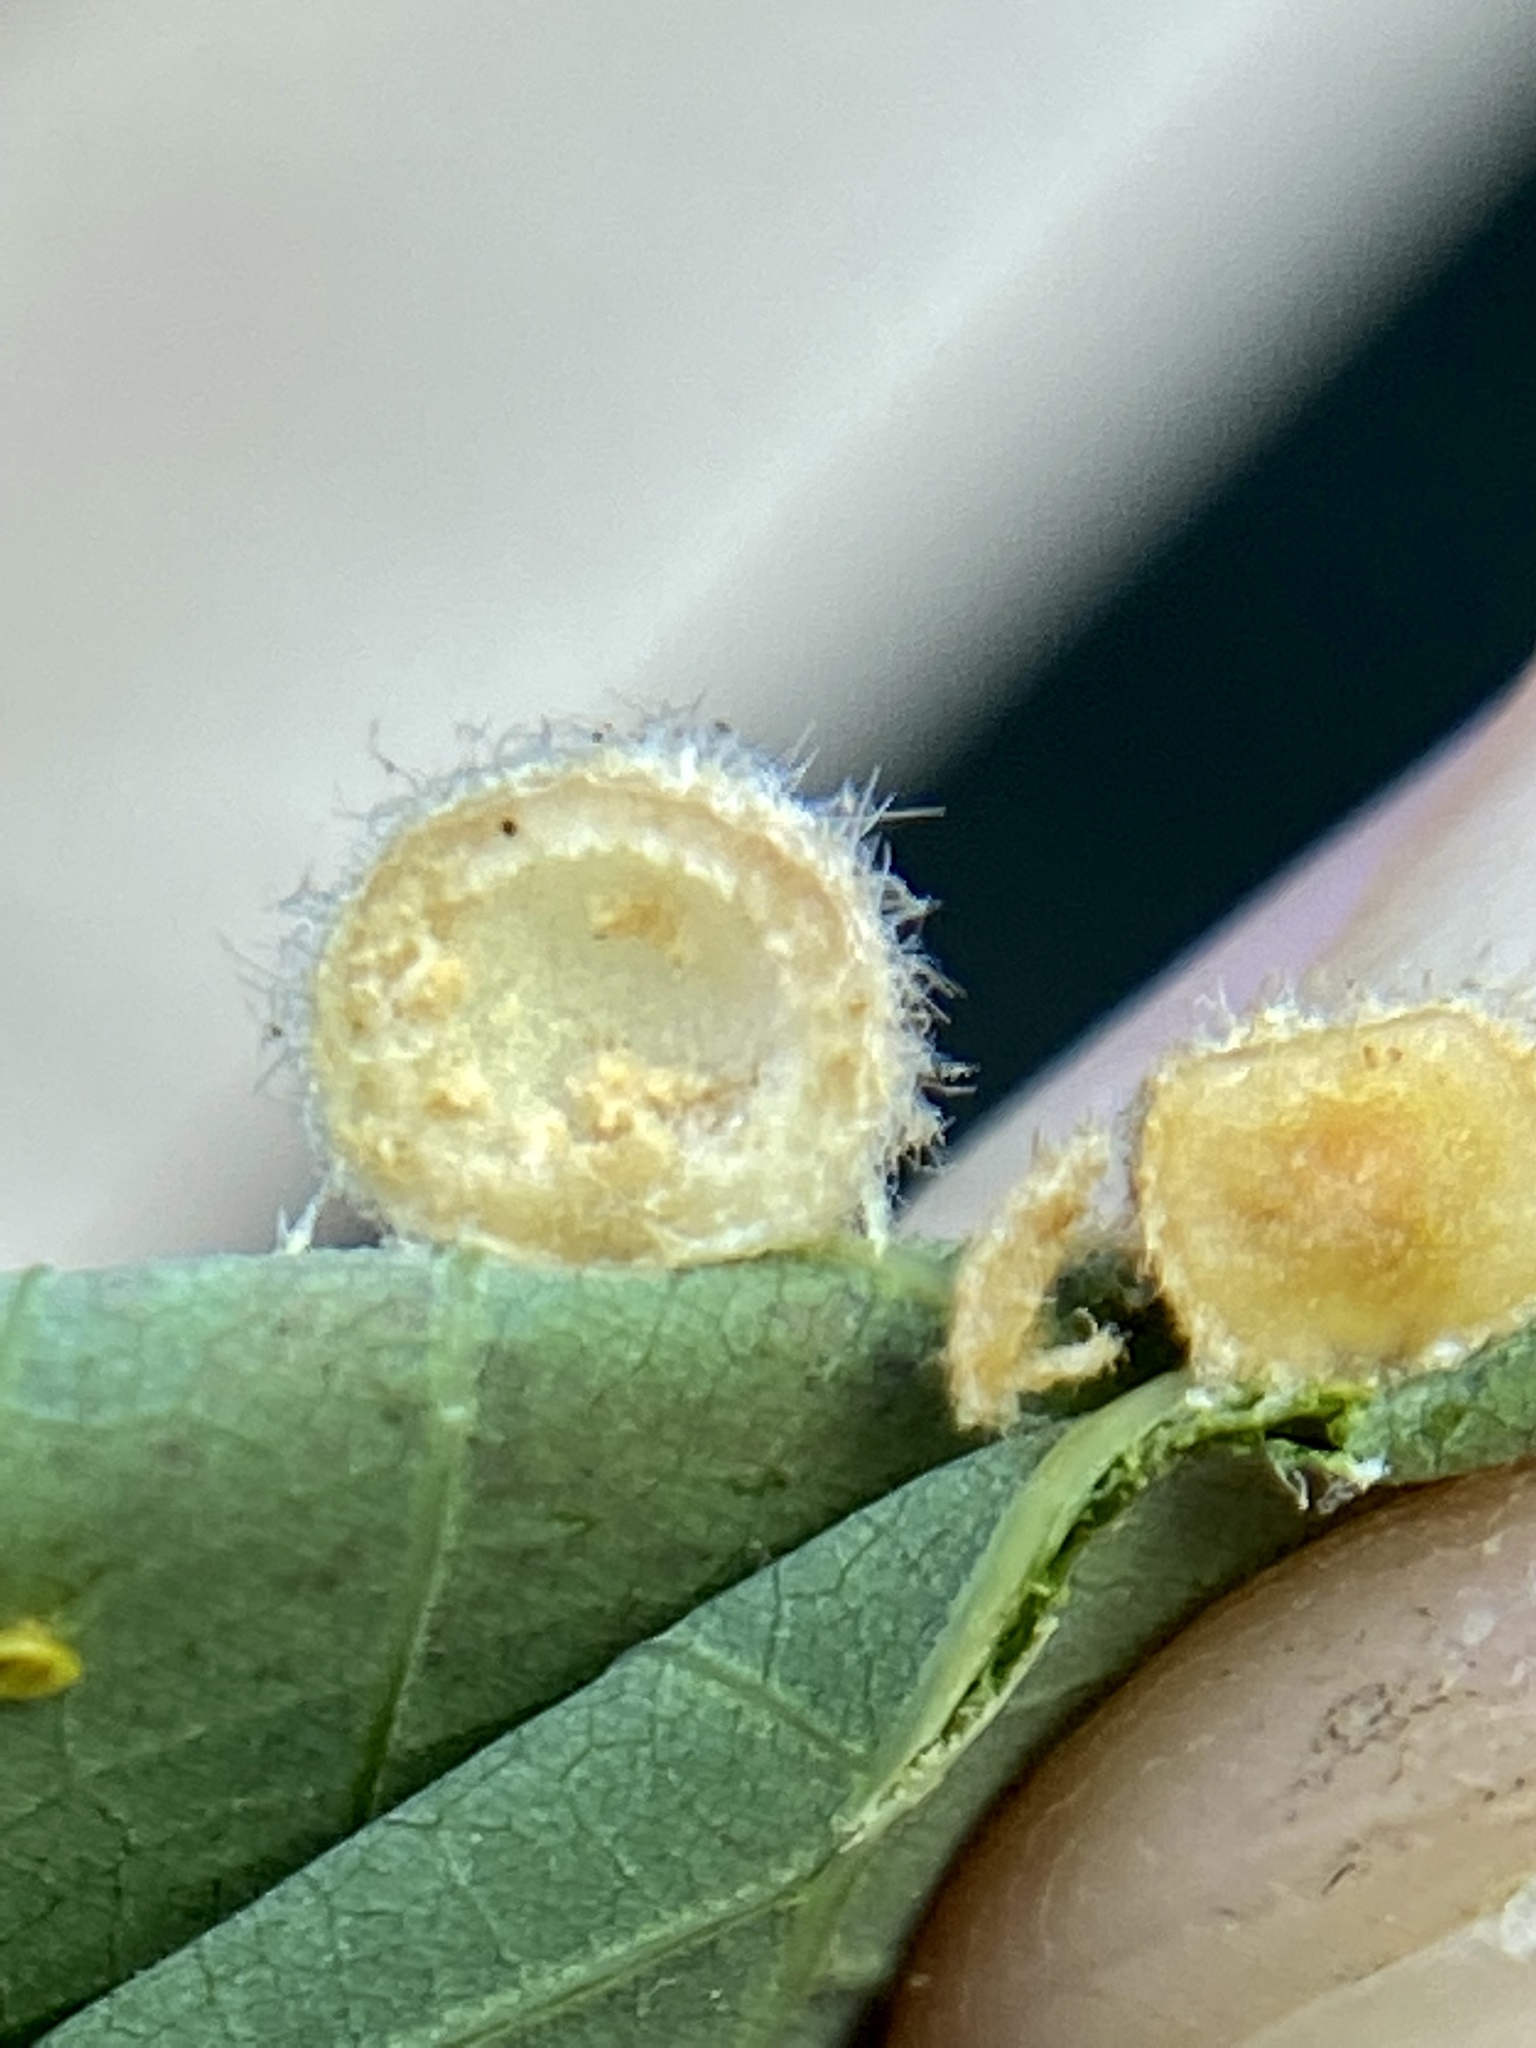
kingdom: Animalia
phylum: Arthropoda
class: Insecta
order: Hymenoptera
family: Cynipidae
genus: Philonix
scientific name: Philonix fulvicollis
